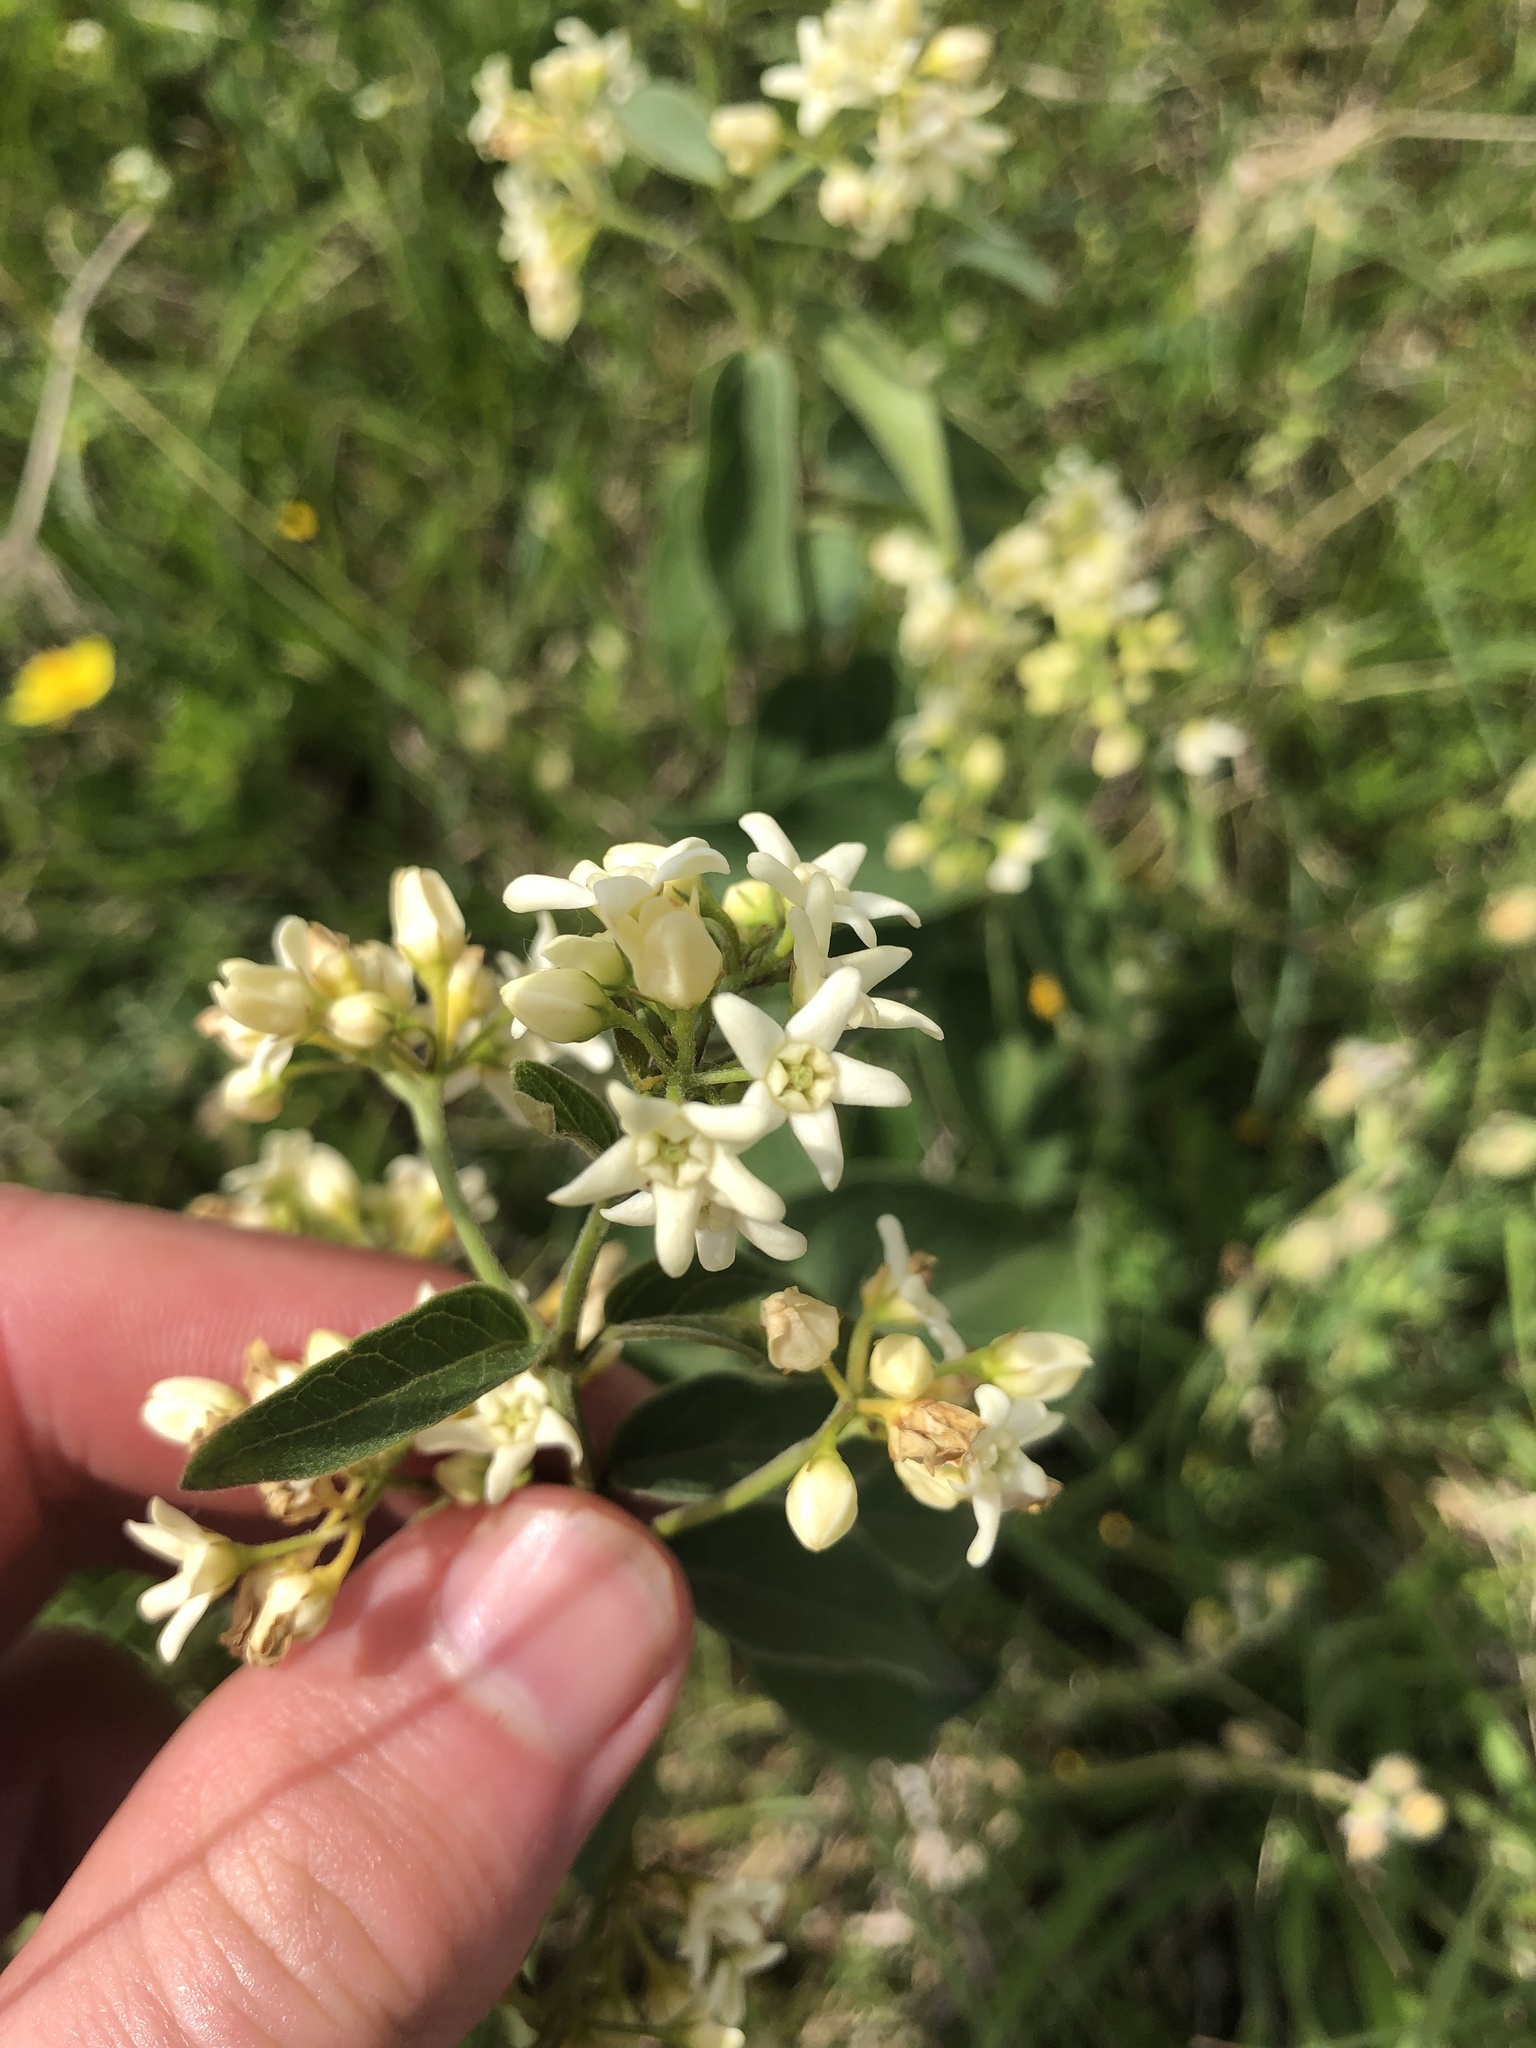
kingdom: Plantae
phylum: Tracheophyta
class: Magnoliopsida
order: Gentianales
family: Apocynaceae
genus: Vincetoxicum
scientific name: Vincetoxicum hirundinaria
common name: White swallowwort
